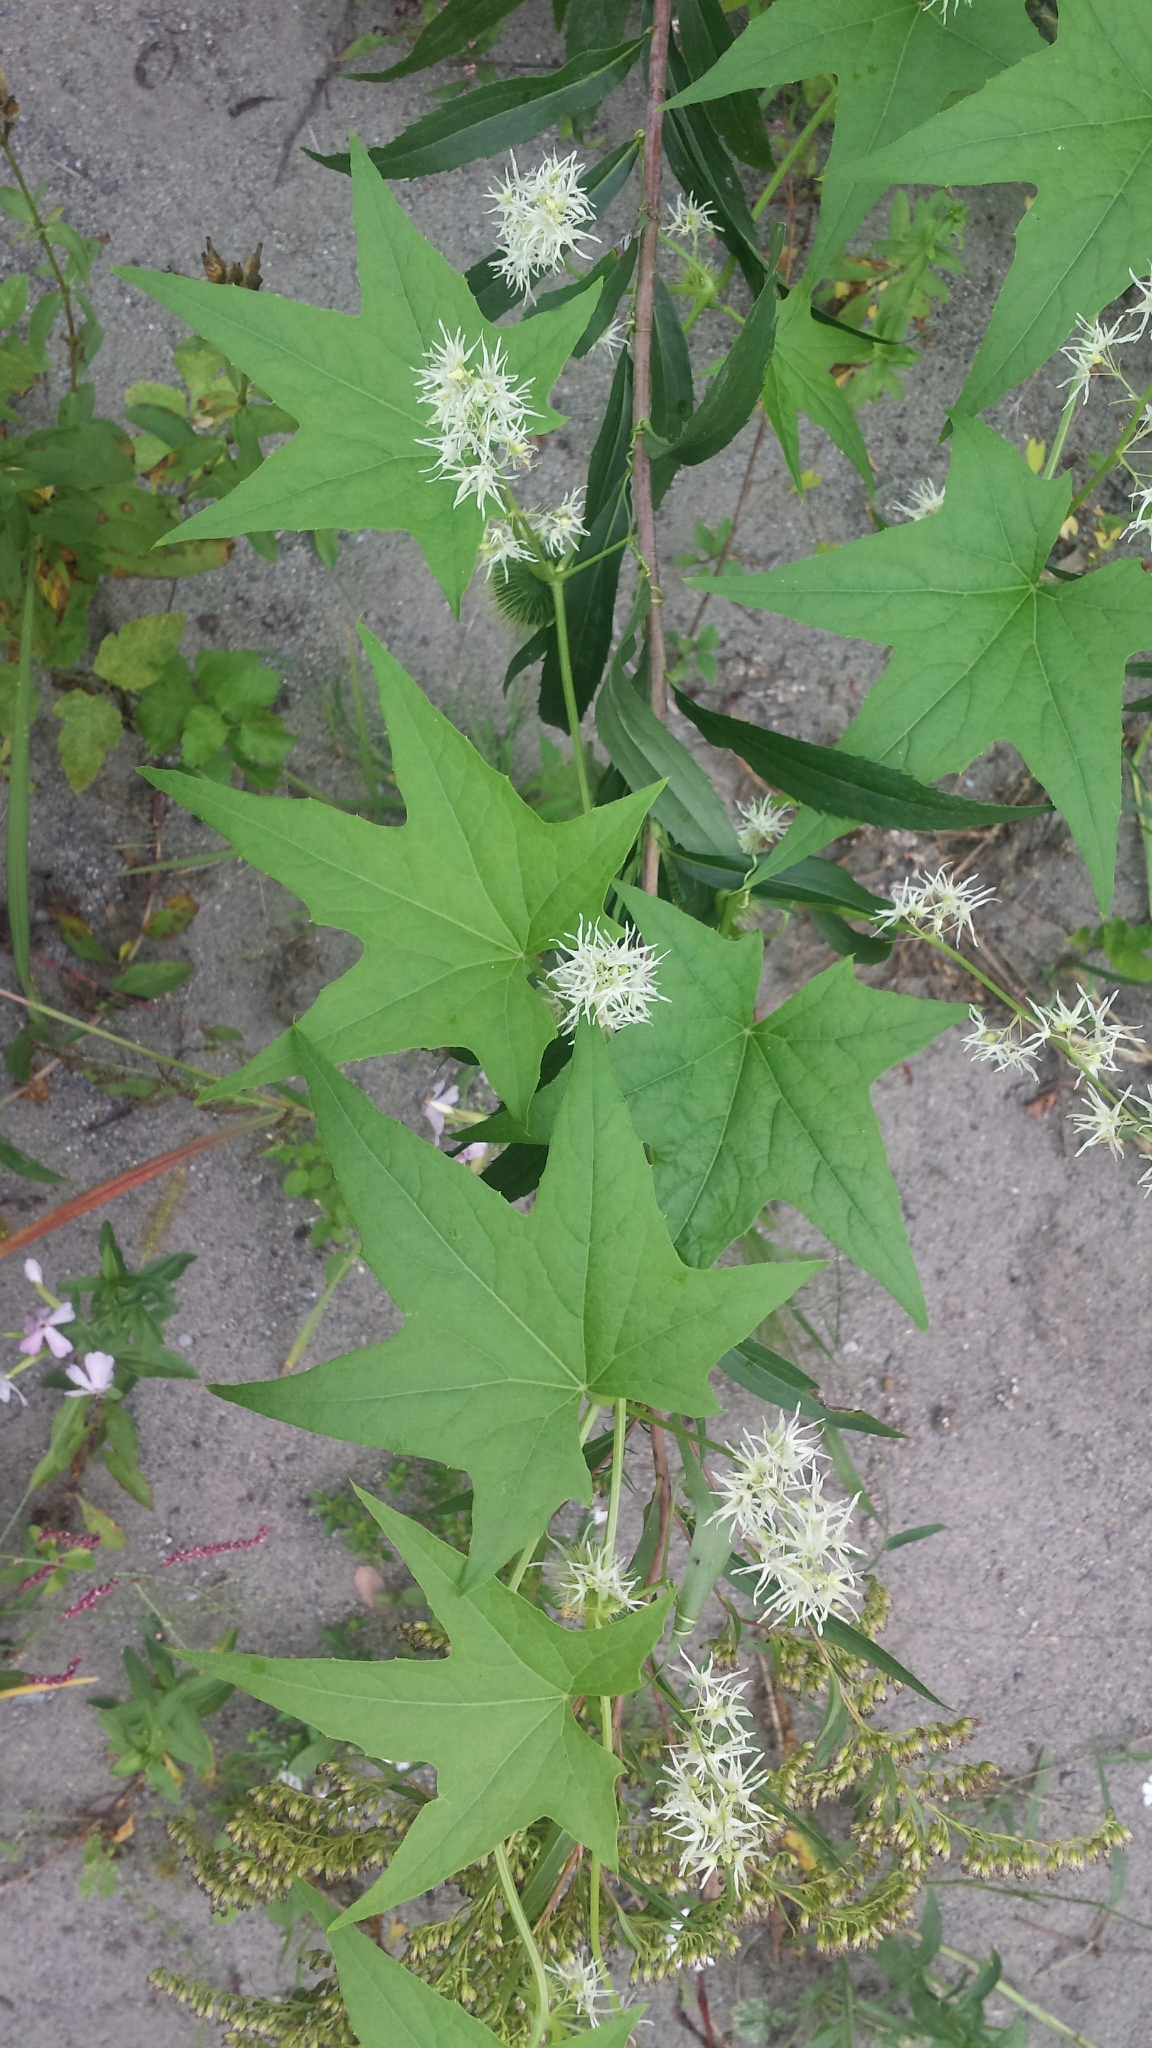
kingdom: Plantae
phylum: Tracheophyta
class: Magnoliopsida
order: Cucurbitales
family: Cucurbitaceae
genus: Echinocystis
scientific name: Echinocystis lobata
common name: Wild cucumber
